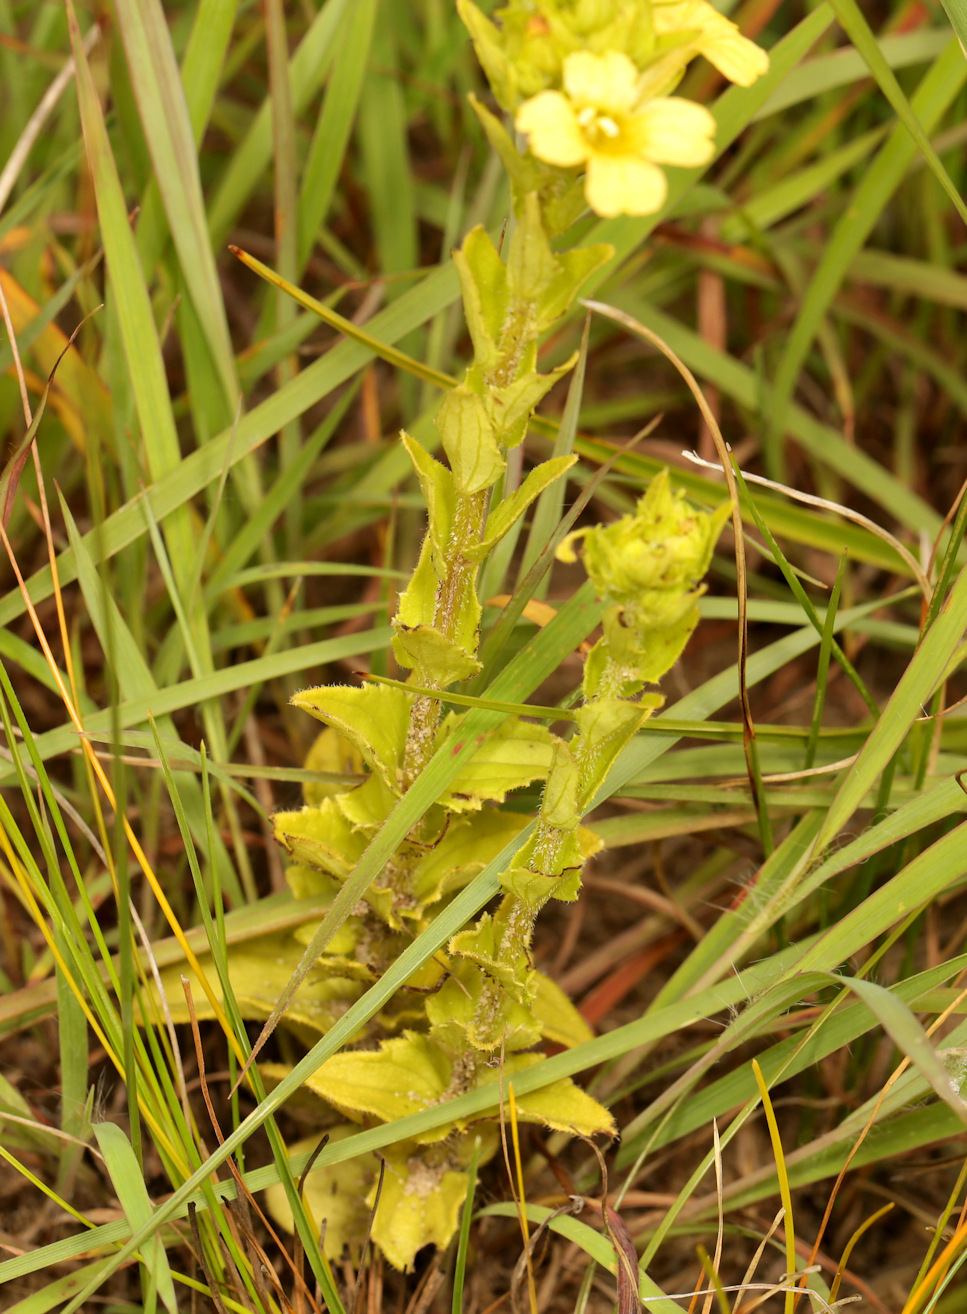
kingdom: Plantae
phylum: Tracheophyta
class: Magnoliopsida
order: Lamiales
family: Orobanchaceae
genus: Alectra
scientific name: Alectra sessiliflora
